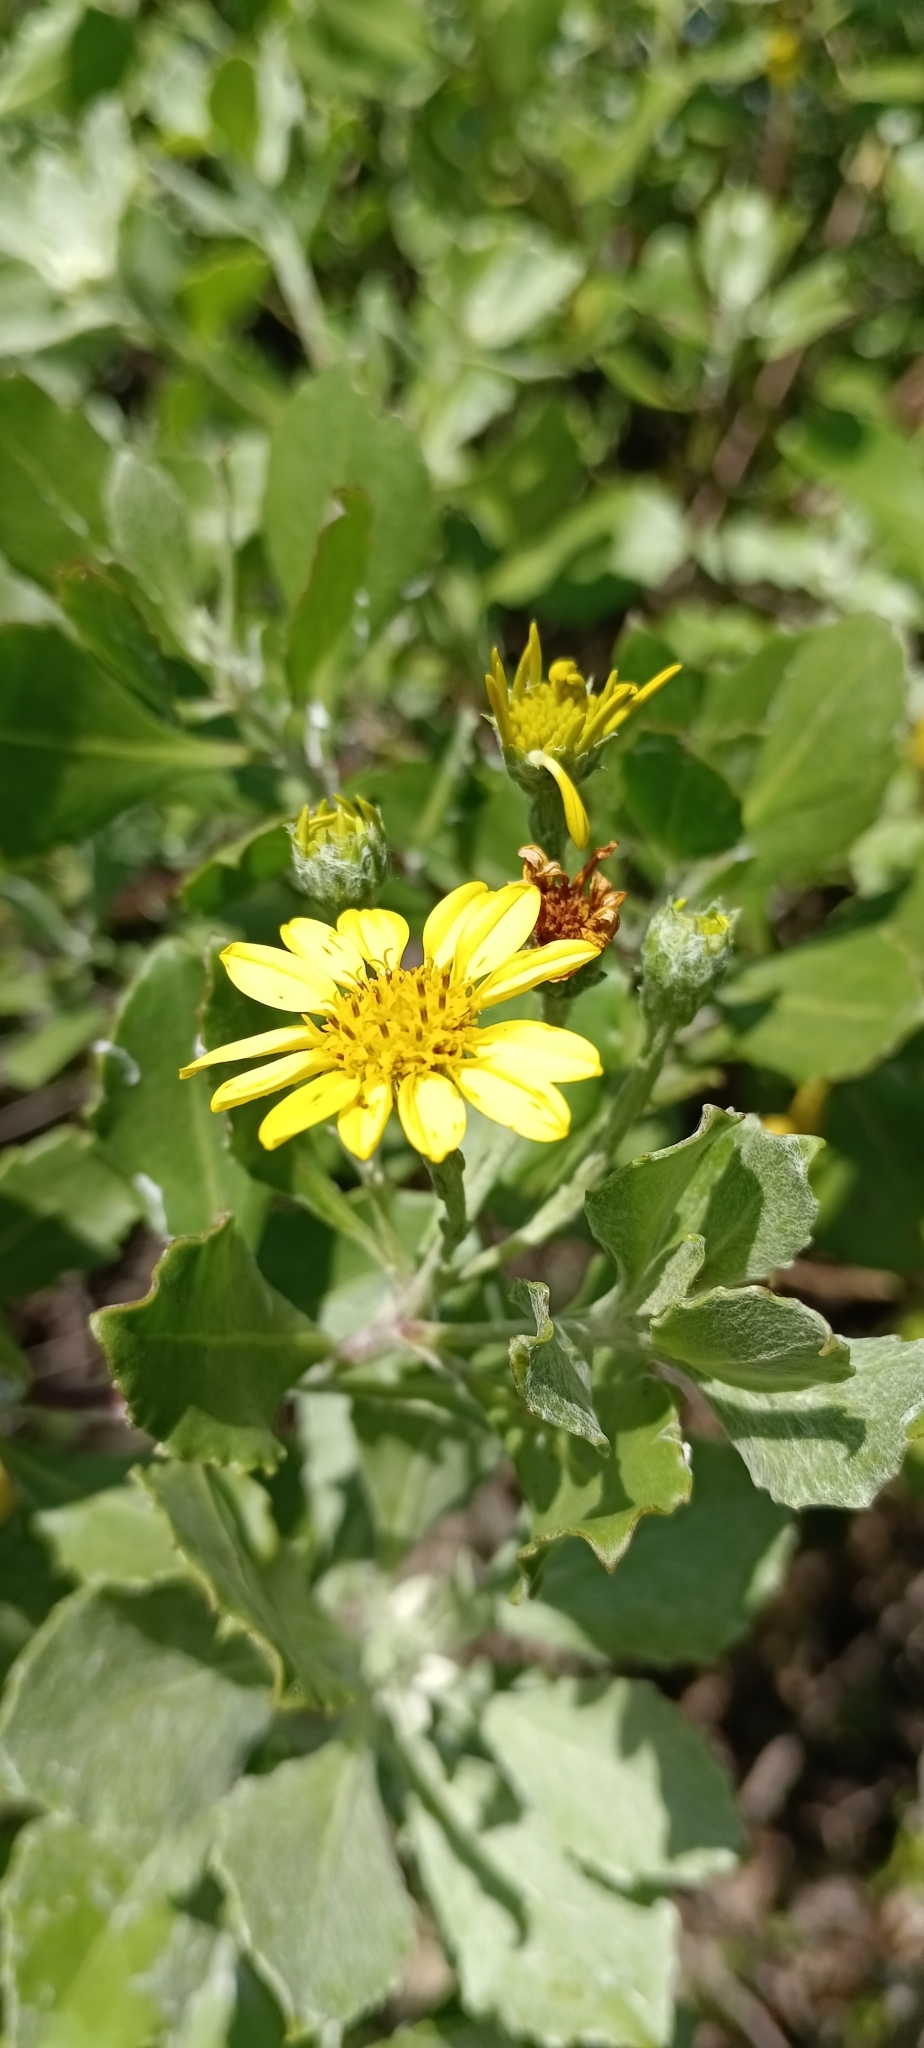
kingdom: Plantae
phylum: Tracheophyta
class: Magnoliopsida
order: Asterales
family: Asteraceae
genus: Osteospermum
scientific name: Osteospermum moniliferum
